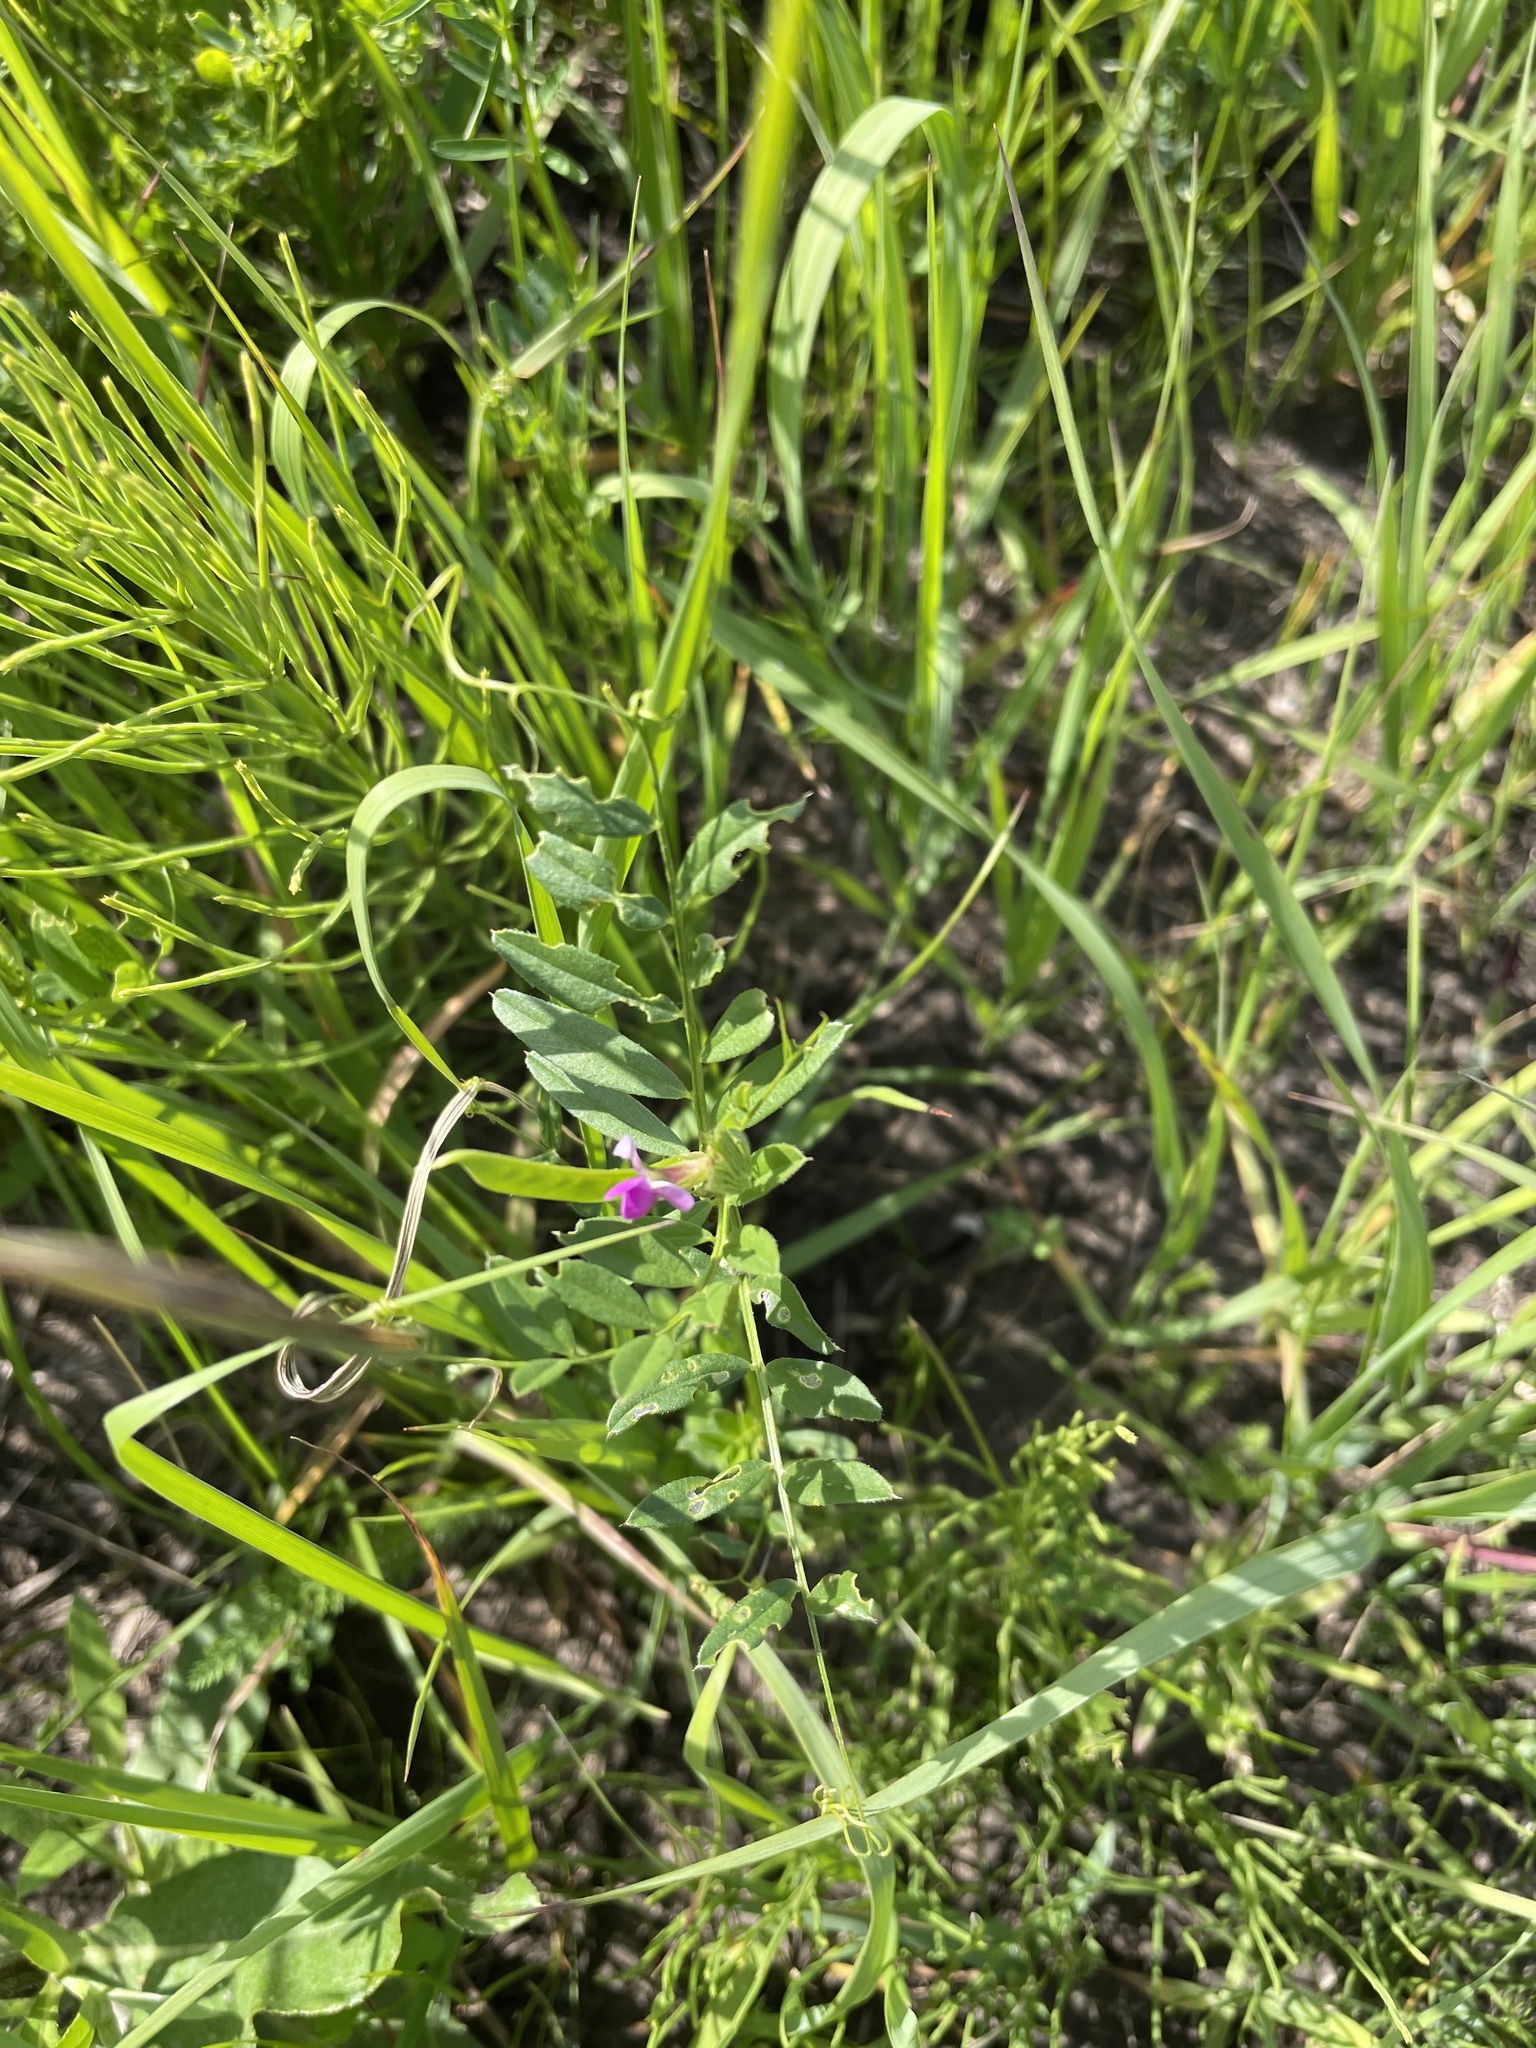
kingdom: Plantae
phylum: Tracheophyta
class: Magnoliopsida
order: Fabales
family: Fabaceae
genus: Vicia
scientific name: Vicia sativa
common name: Garden vetch
